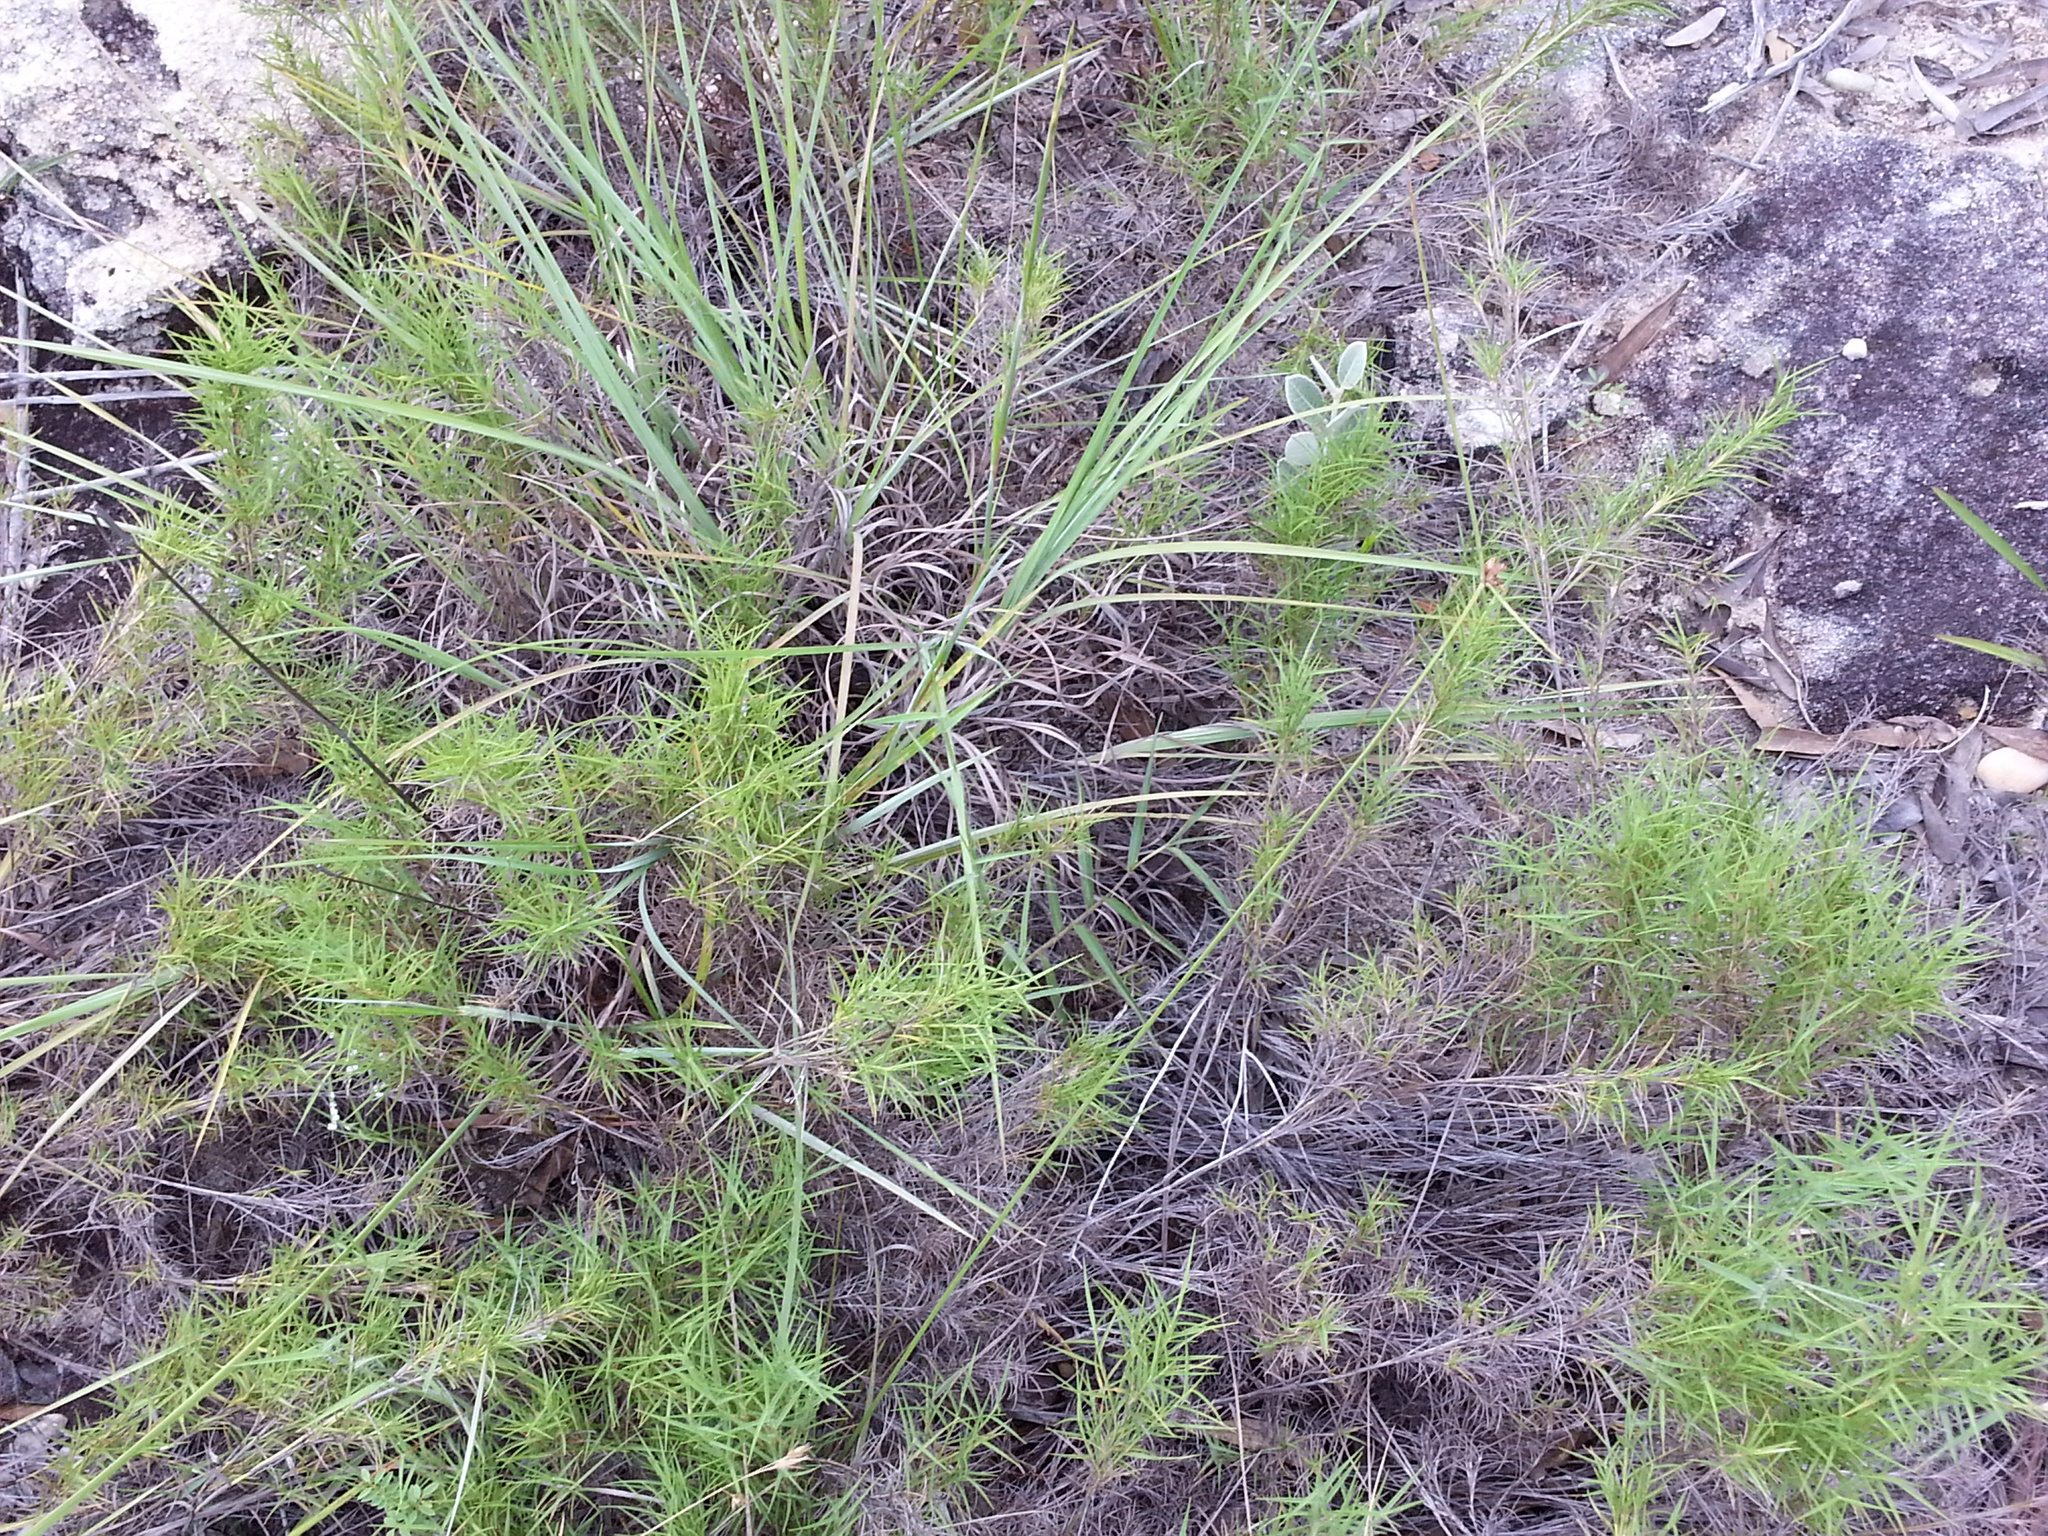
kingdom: Plantae
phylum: Tracheophyta
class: Liliopsida
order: Poales
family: Poaceae
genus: Danthoniopsis
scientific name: Danthoniopsis isalensis
